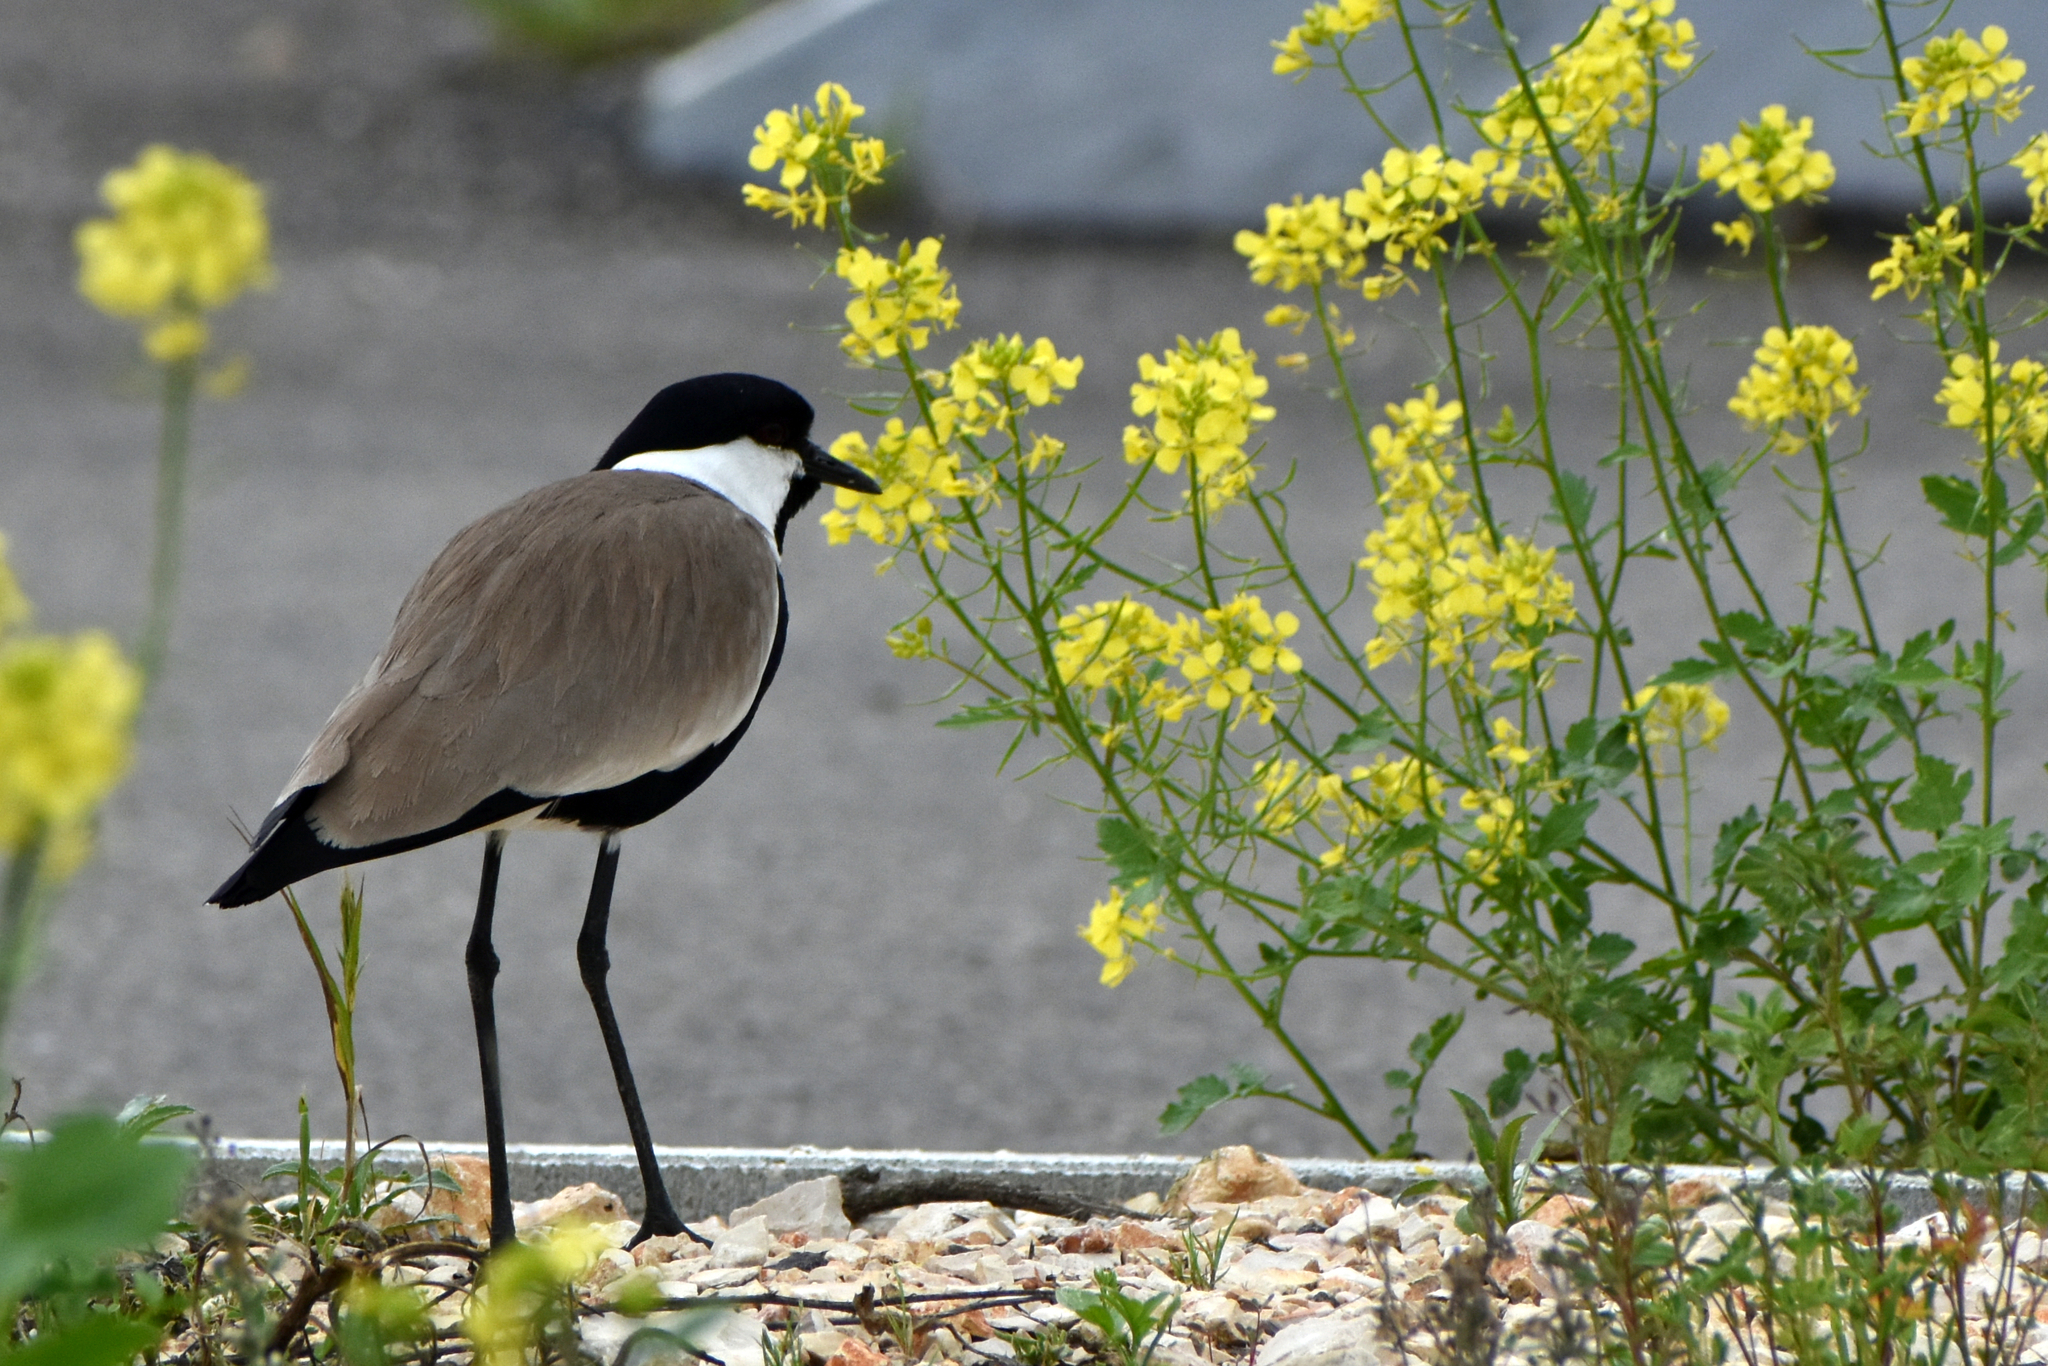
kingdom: Animalia
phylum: Chordata
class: Aves
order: Charadriiformes
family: Charadriidae
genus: Vanellus
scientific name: Vanellus spinosus
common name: Spur-winged lapwing
